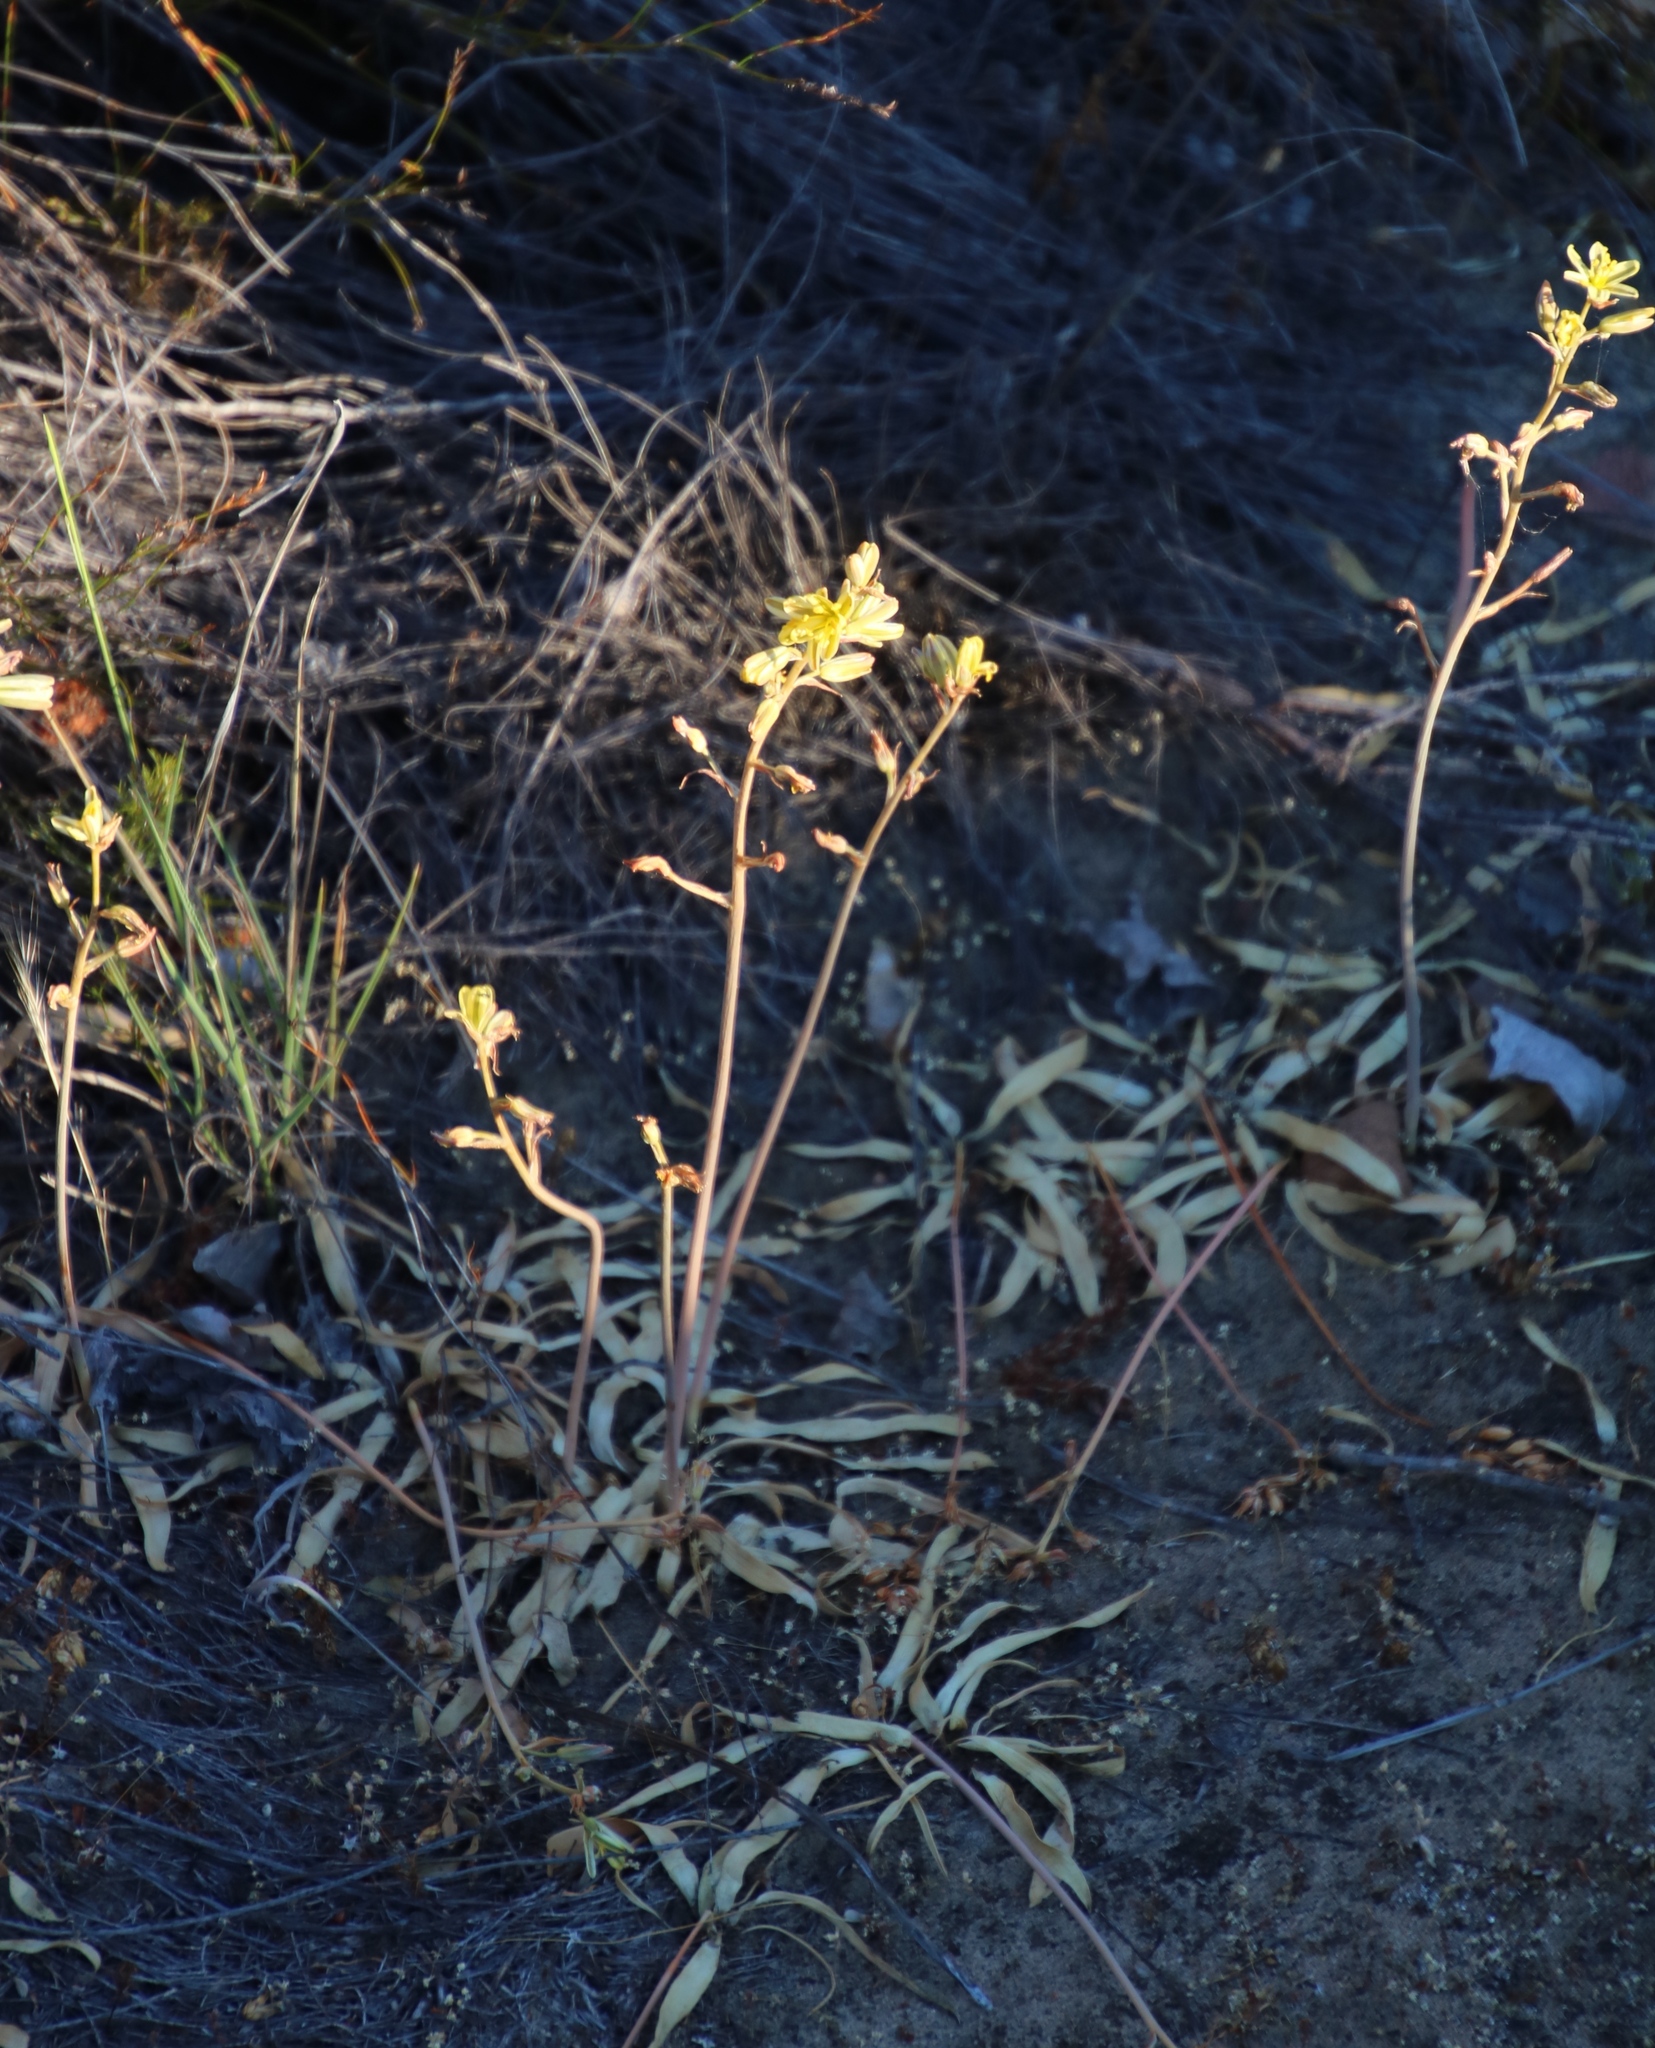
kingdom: Plantae
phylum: Tracheophyta
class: Liliopsida
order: Asparagales
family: Asparagaceae
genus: Albuca
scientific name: Albuca secunda
